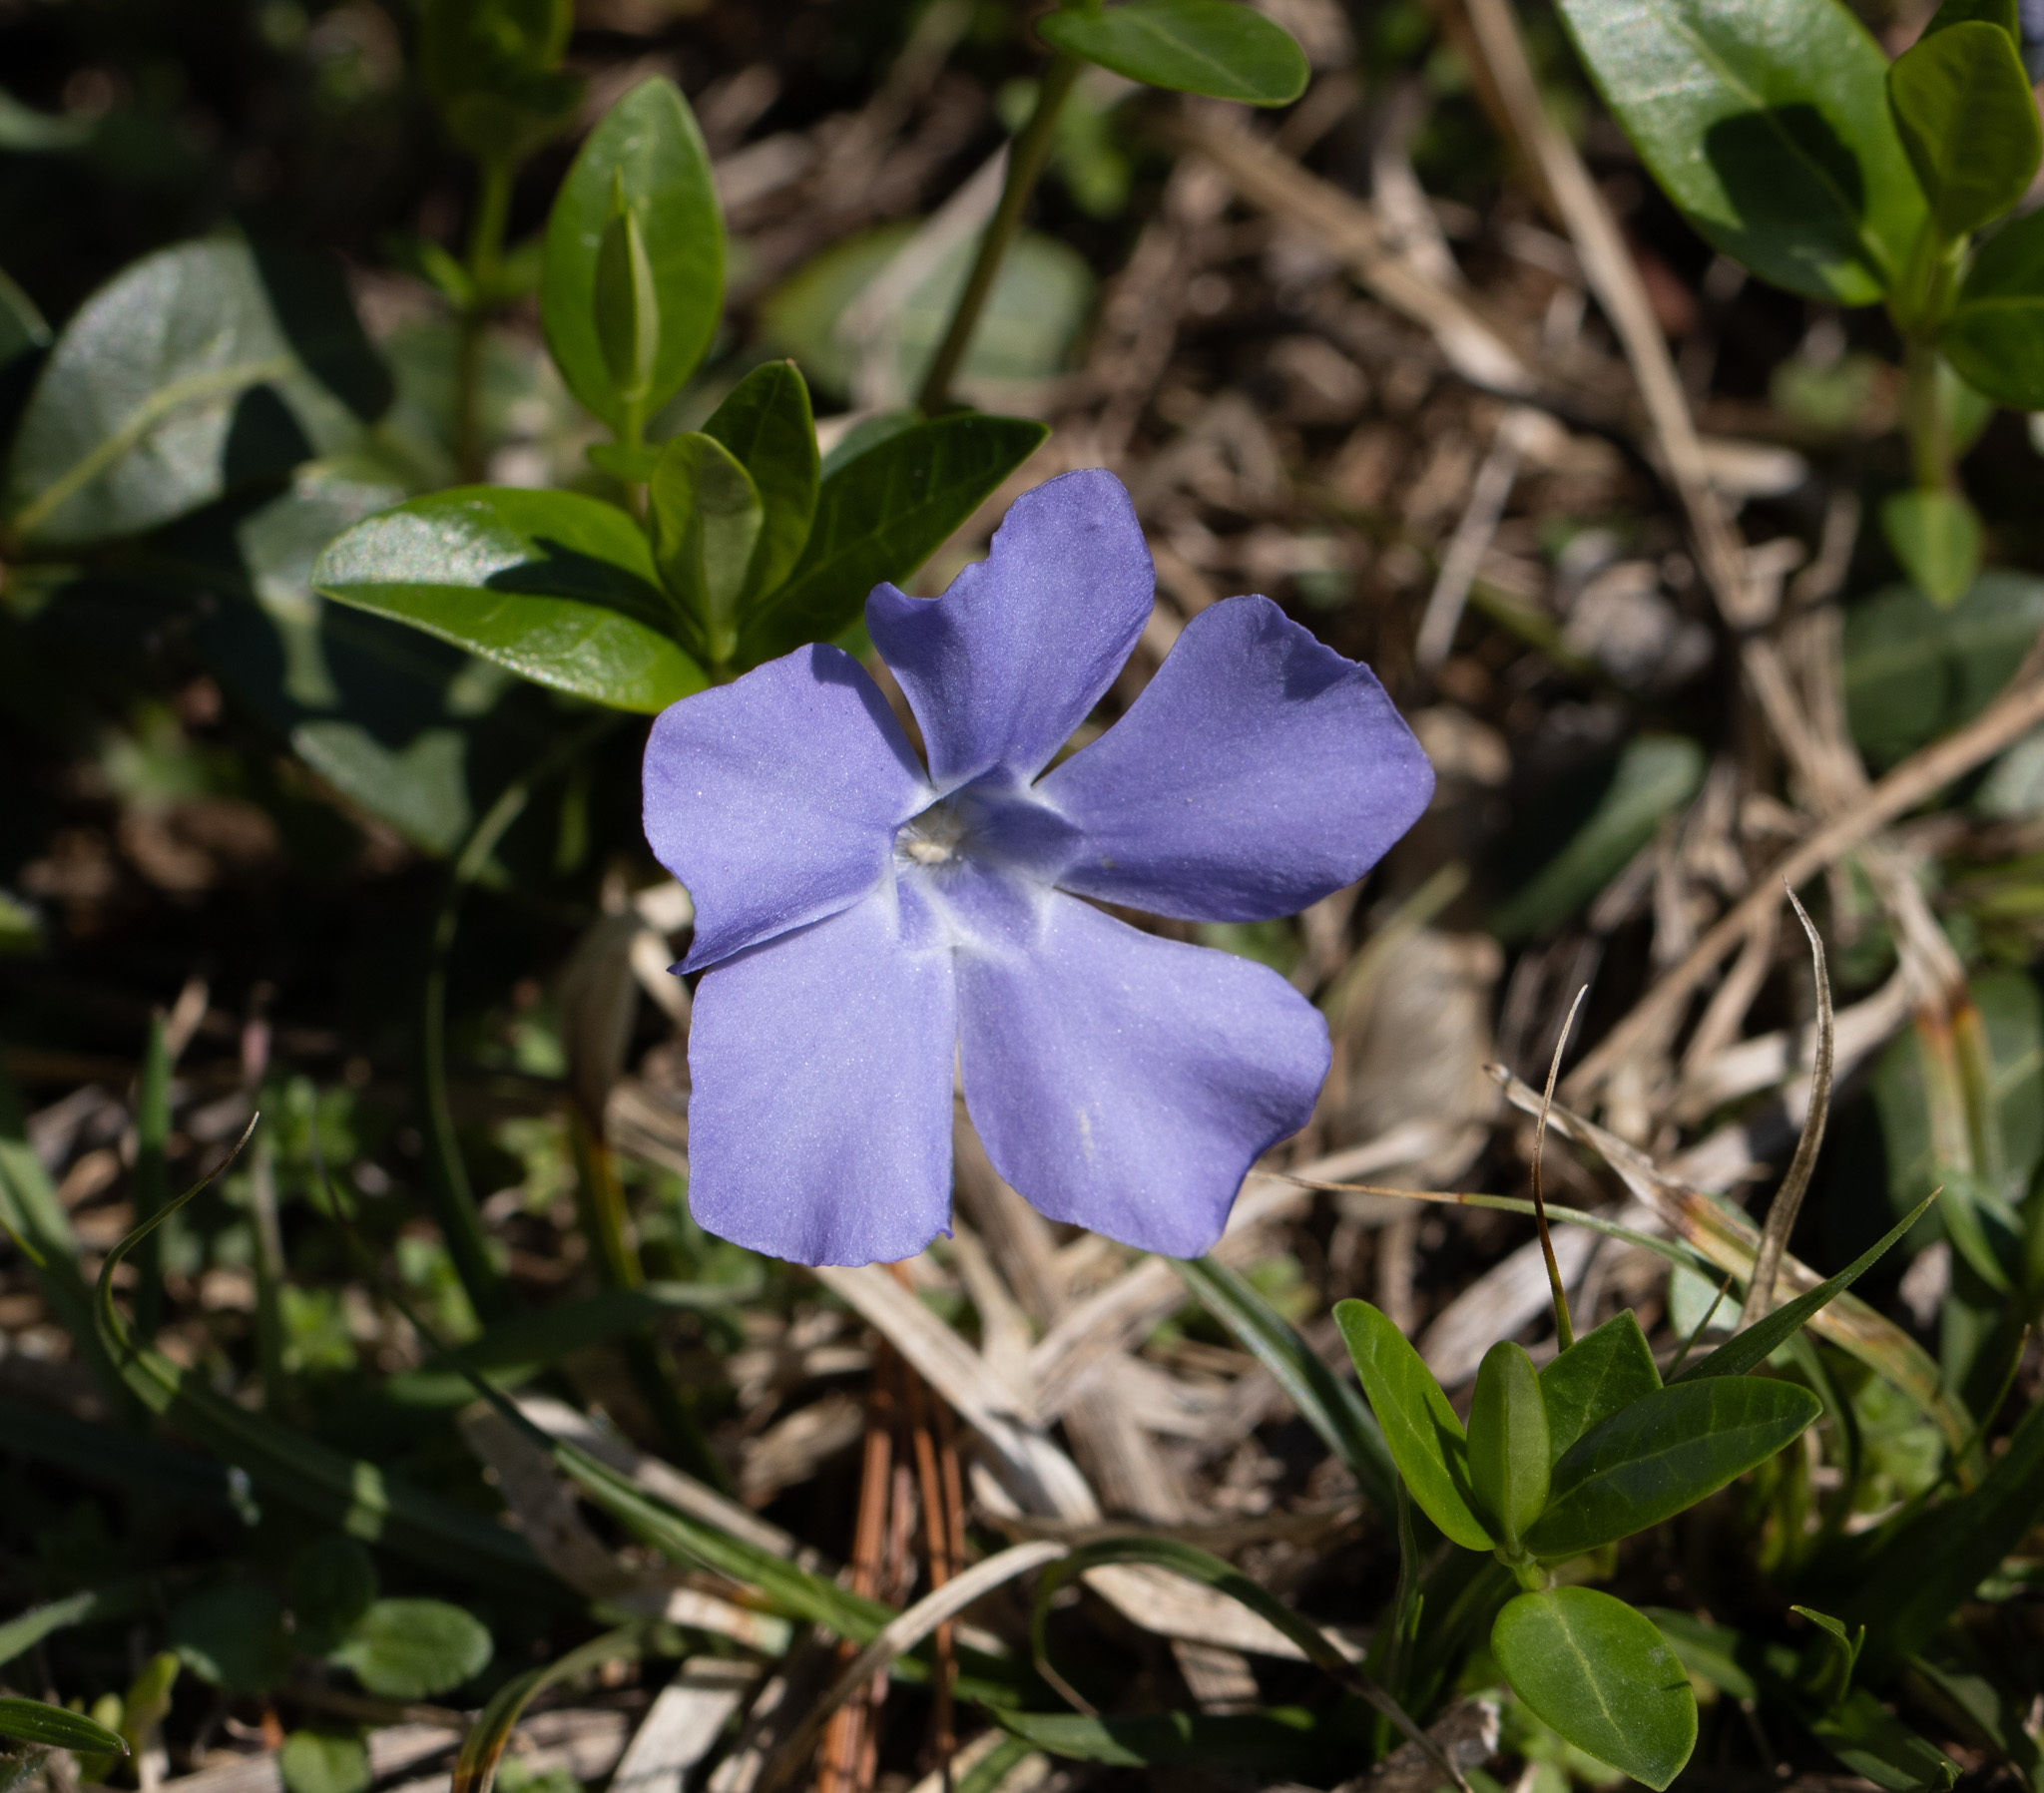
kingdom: Plantae
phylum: Tracheophyta
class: Magnoliopsida
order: Gentianales
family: Apocynaceae
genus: Vinca
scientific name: Vinca minor
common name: Lesser periwinkle
